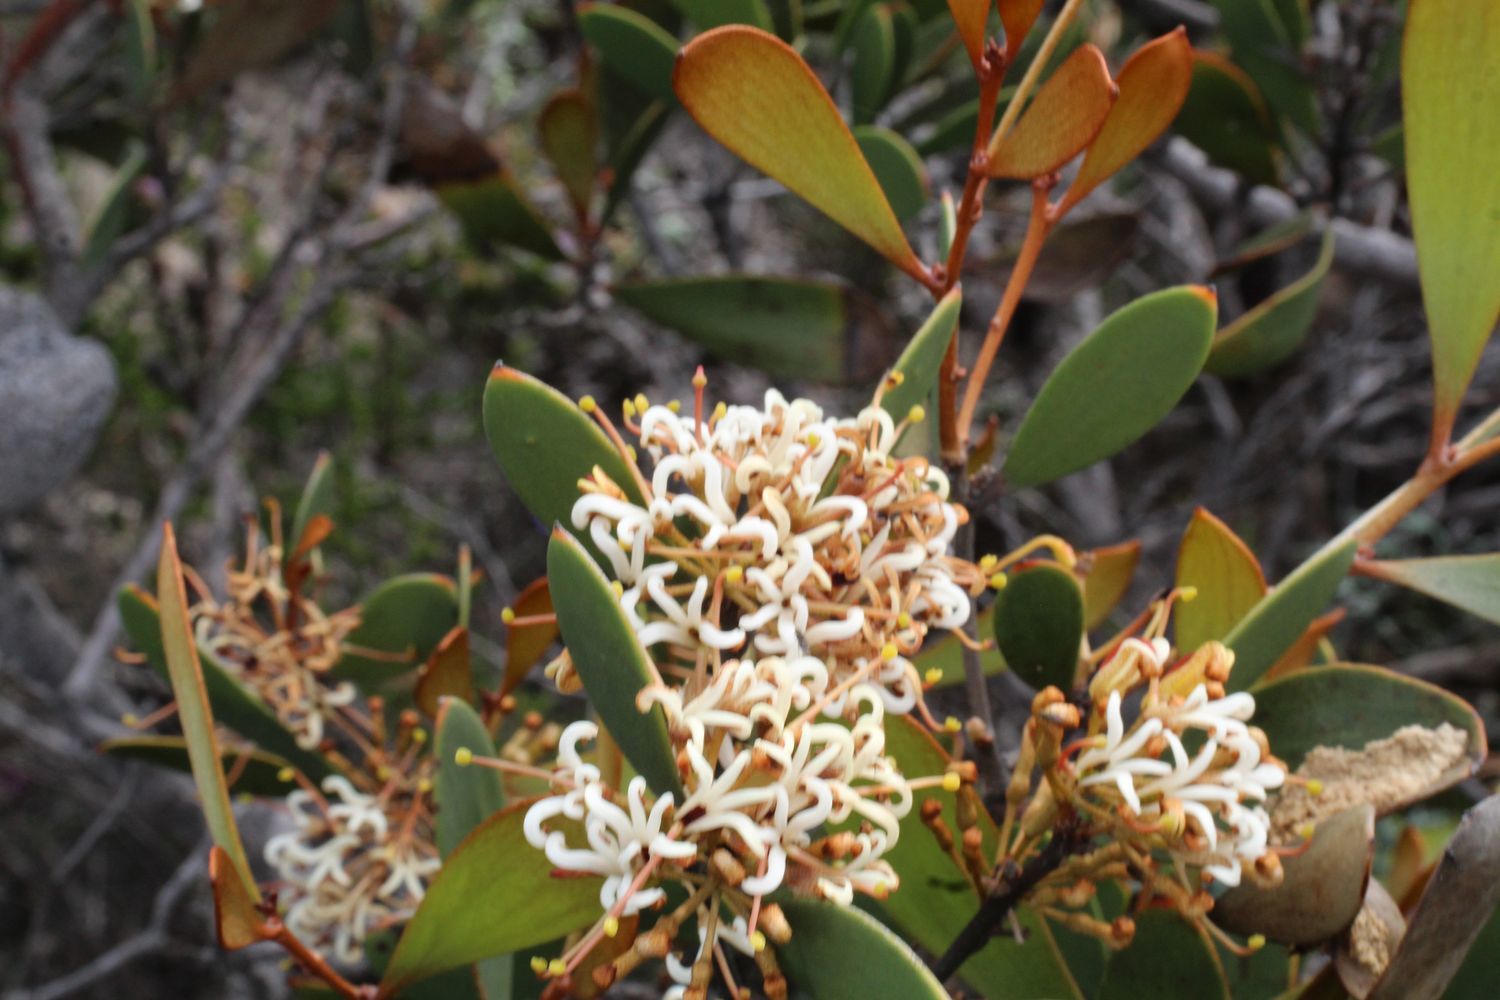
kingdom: Plantae
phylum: Tracheophyta
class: Magnoliopsida
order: Proteales
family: Proteaceae
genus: Hakea
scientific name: Hakea pandanicarpa
